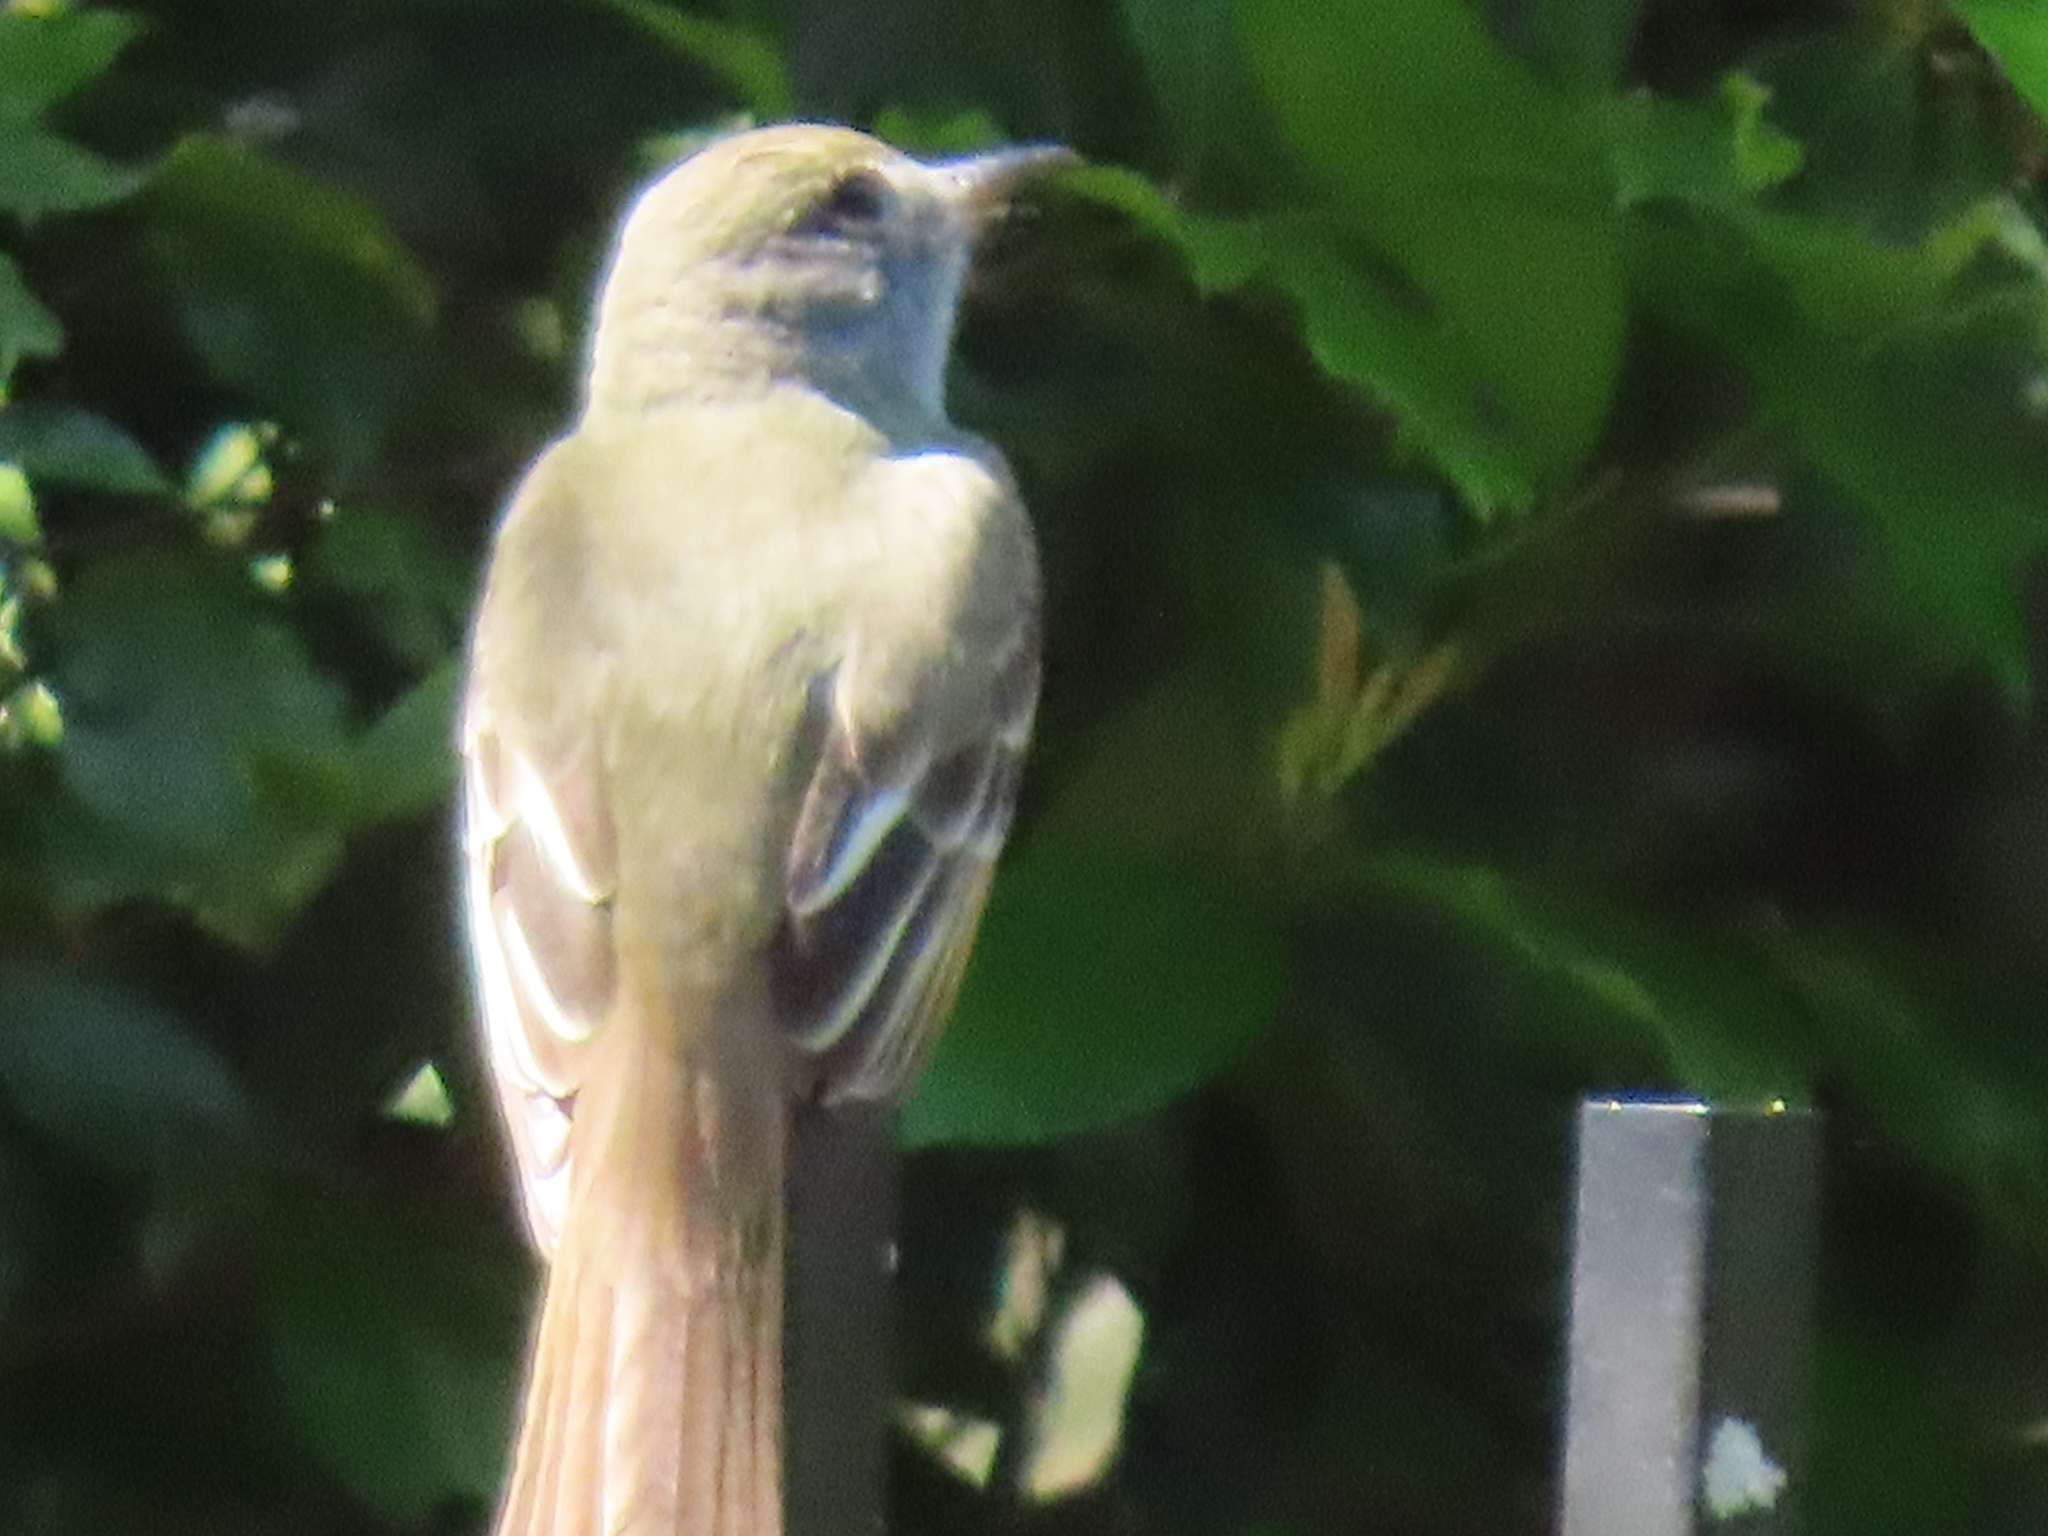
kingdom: Animalia
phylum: Chordata
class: Aves
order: Passeriformes
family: Tyrannidae
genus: Myiarchus
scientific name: Myiarchus crinitus
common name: Great crested flycatcher
